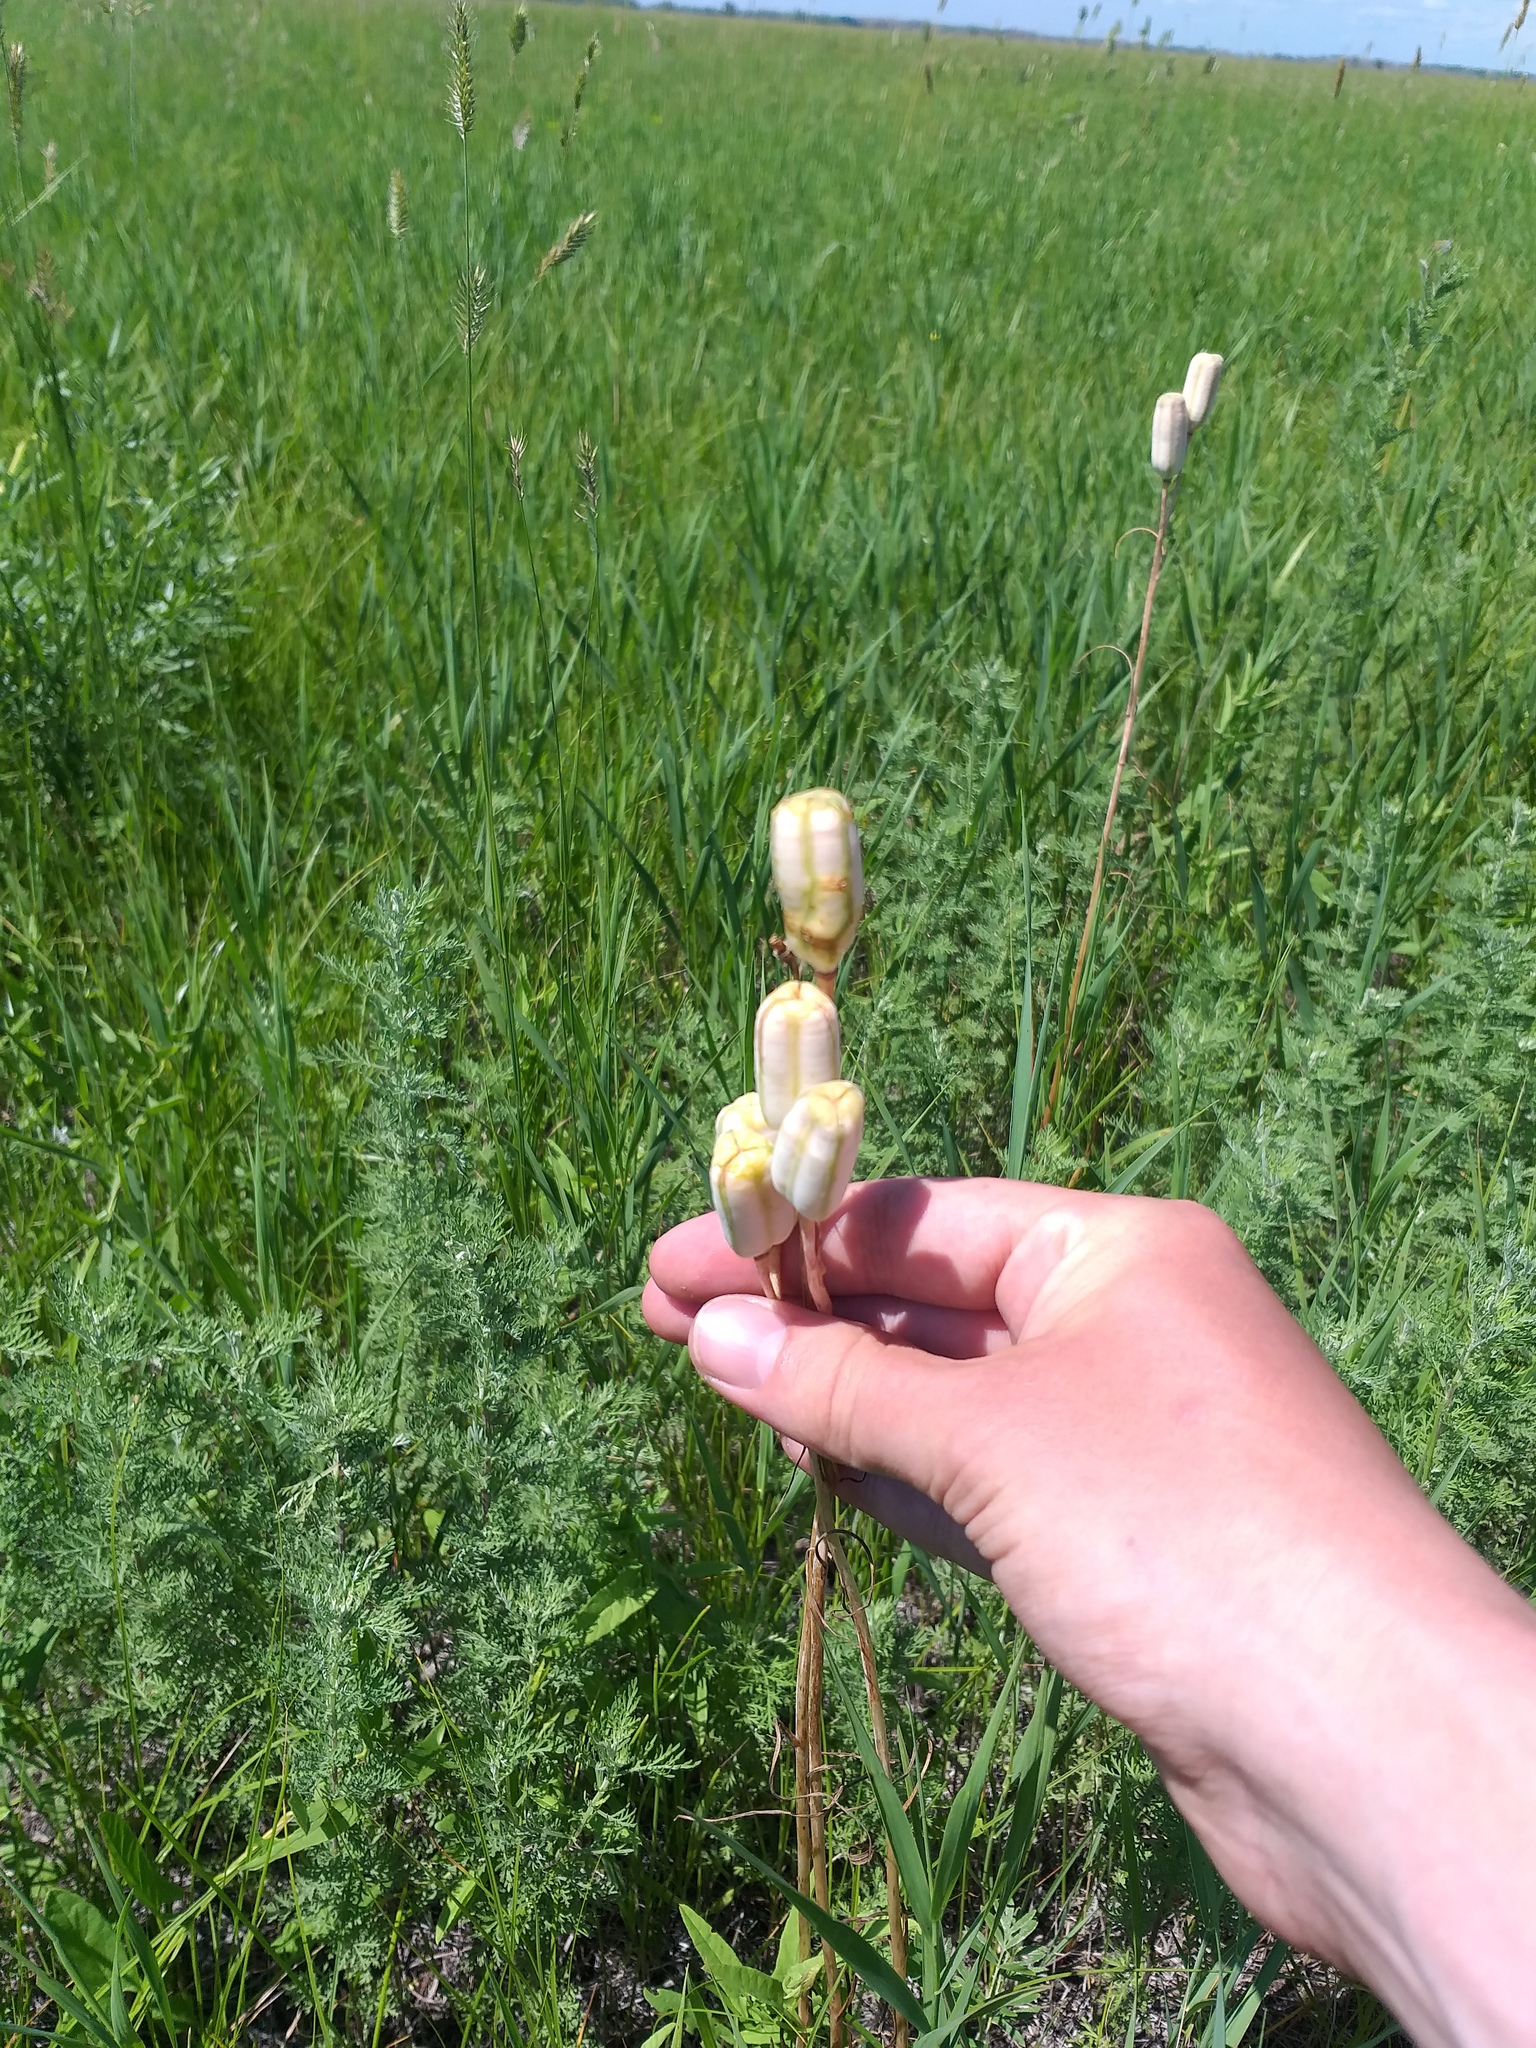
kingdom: Plantae
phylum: Tracheophyta
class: Liliopsida
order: Liliales
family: Liliaceae
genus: Fritillaria
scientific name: Fritillaria meleagroides
